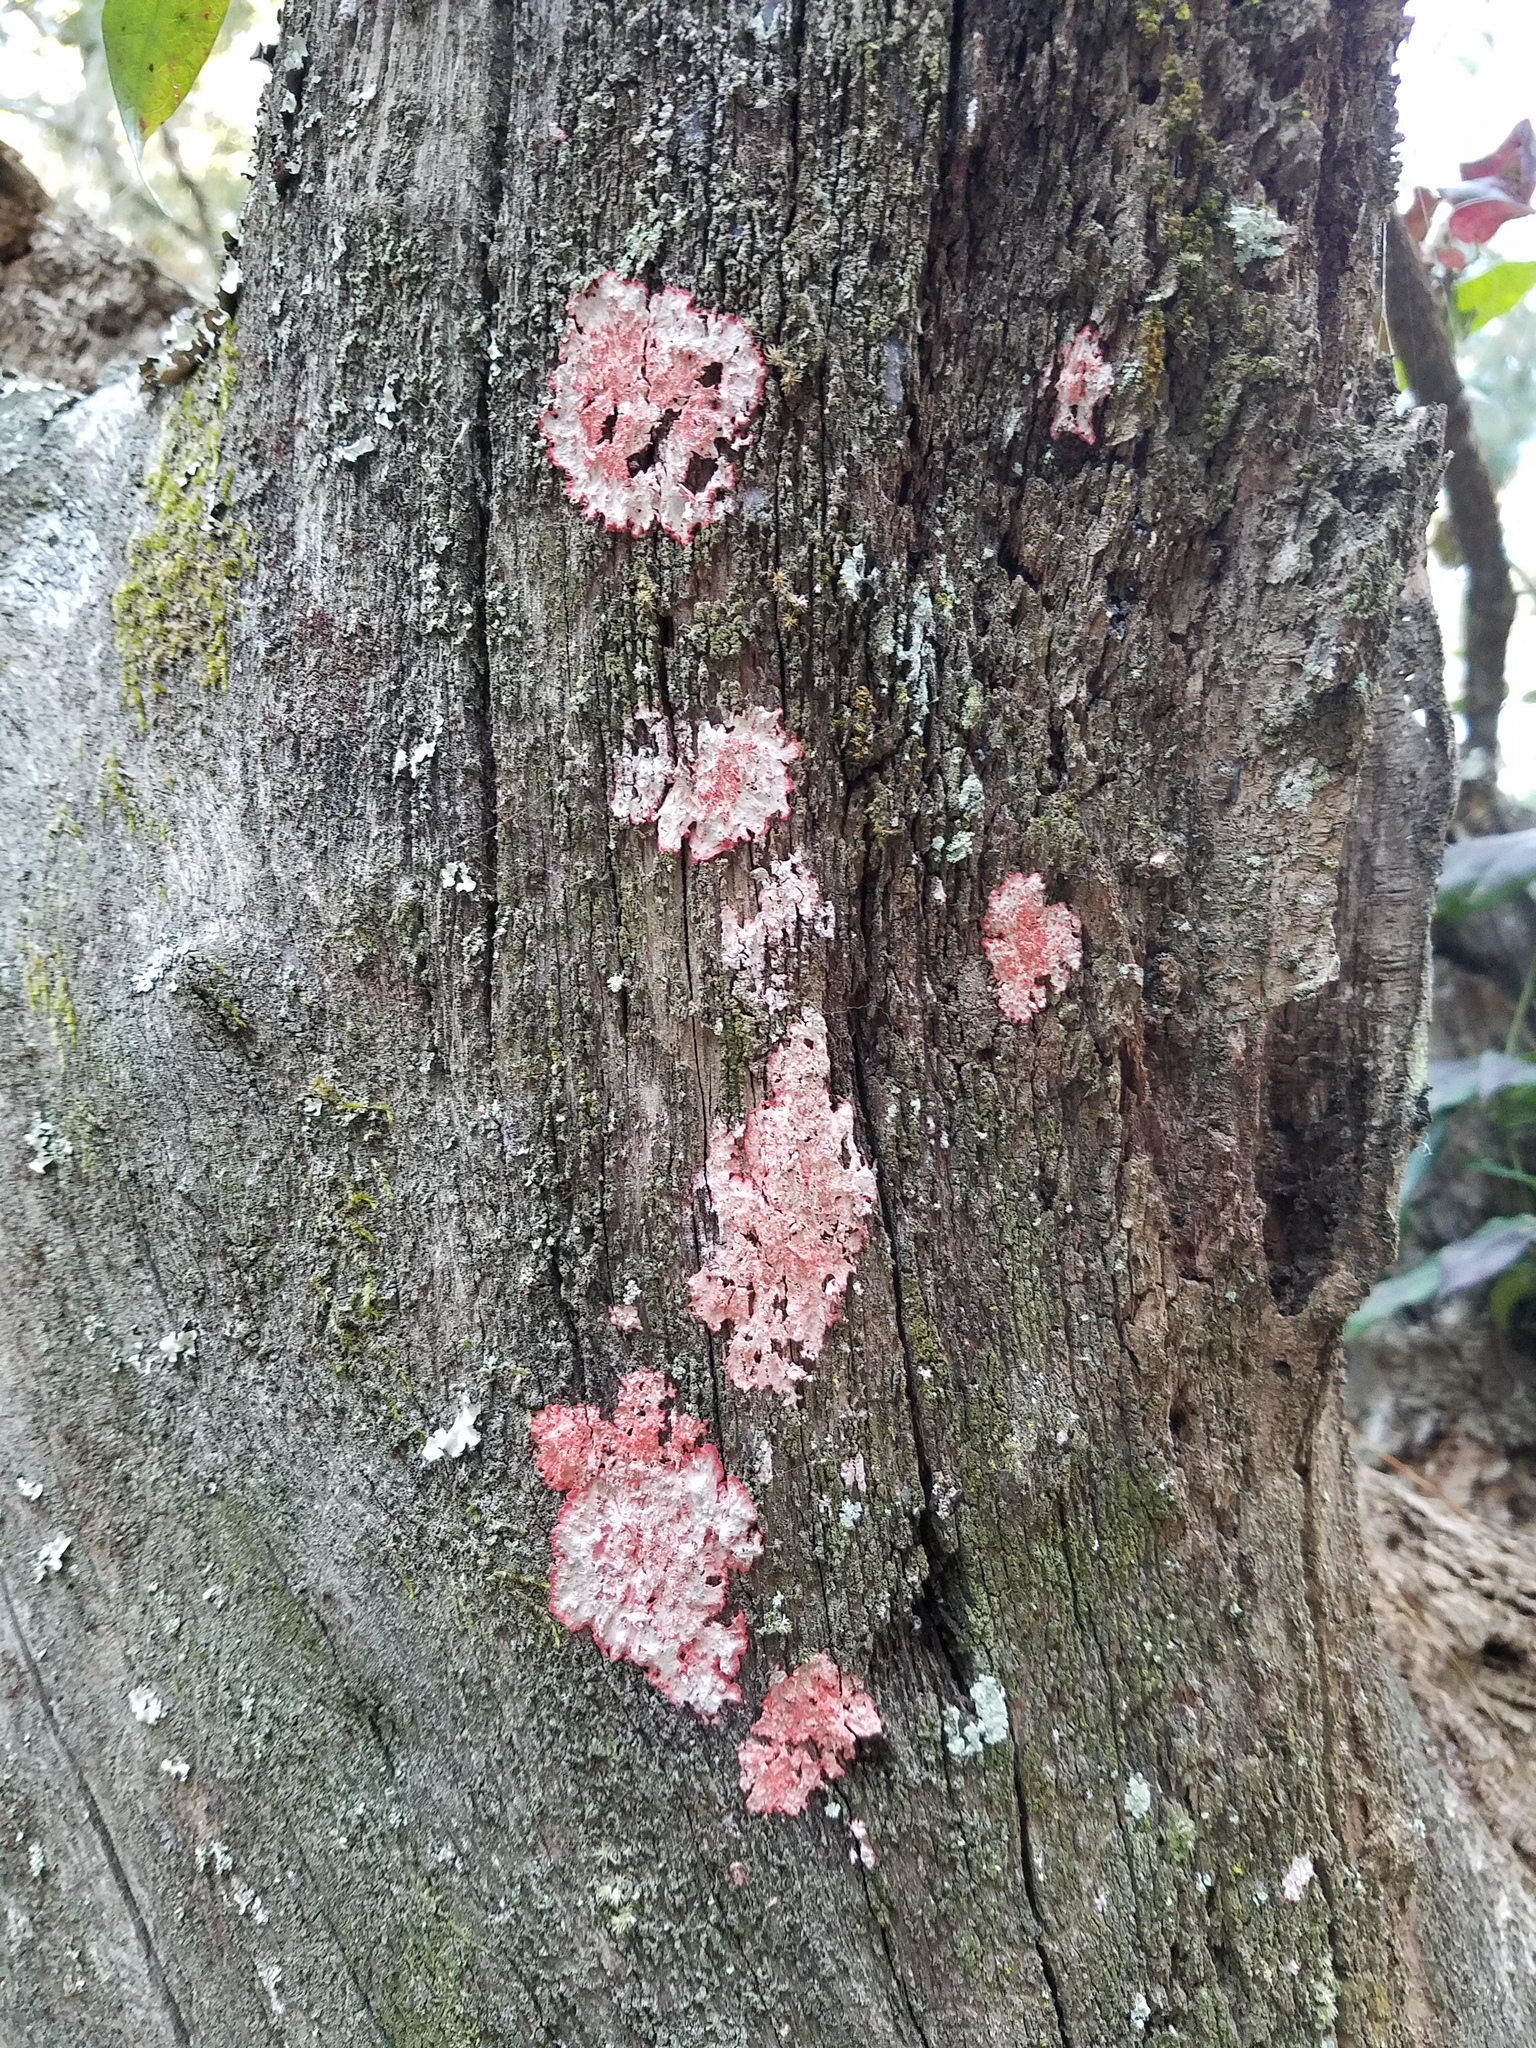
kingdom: Fungi
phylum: Ascomycota
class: Arthoniomycetes
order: Arthoniales
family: Arthoniaceae
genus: Herpothallon
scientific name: Herpothallon rubrocinctum
